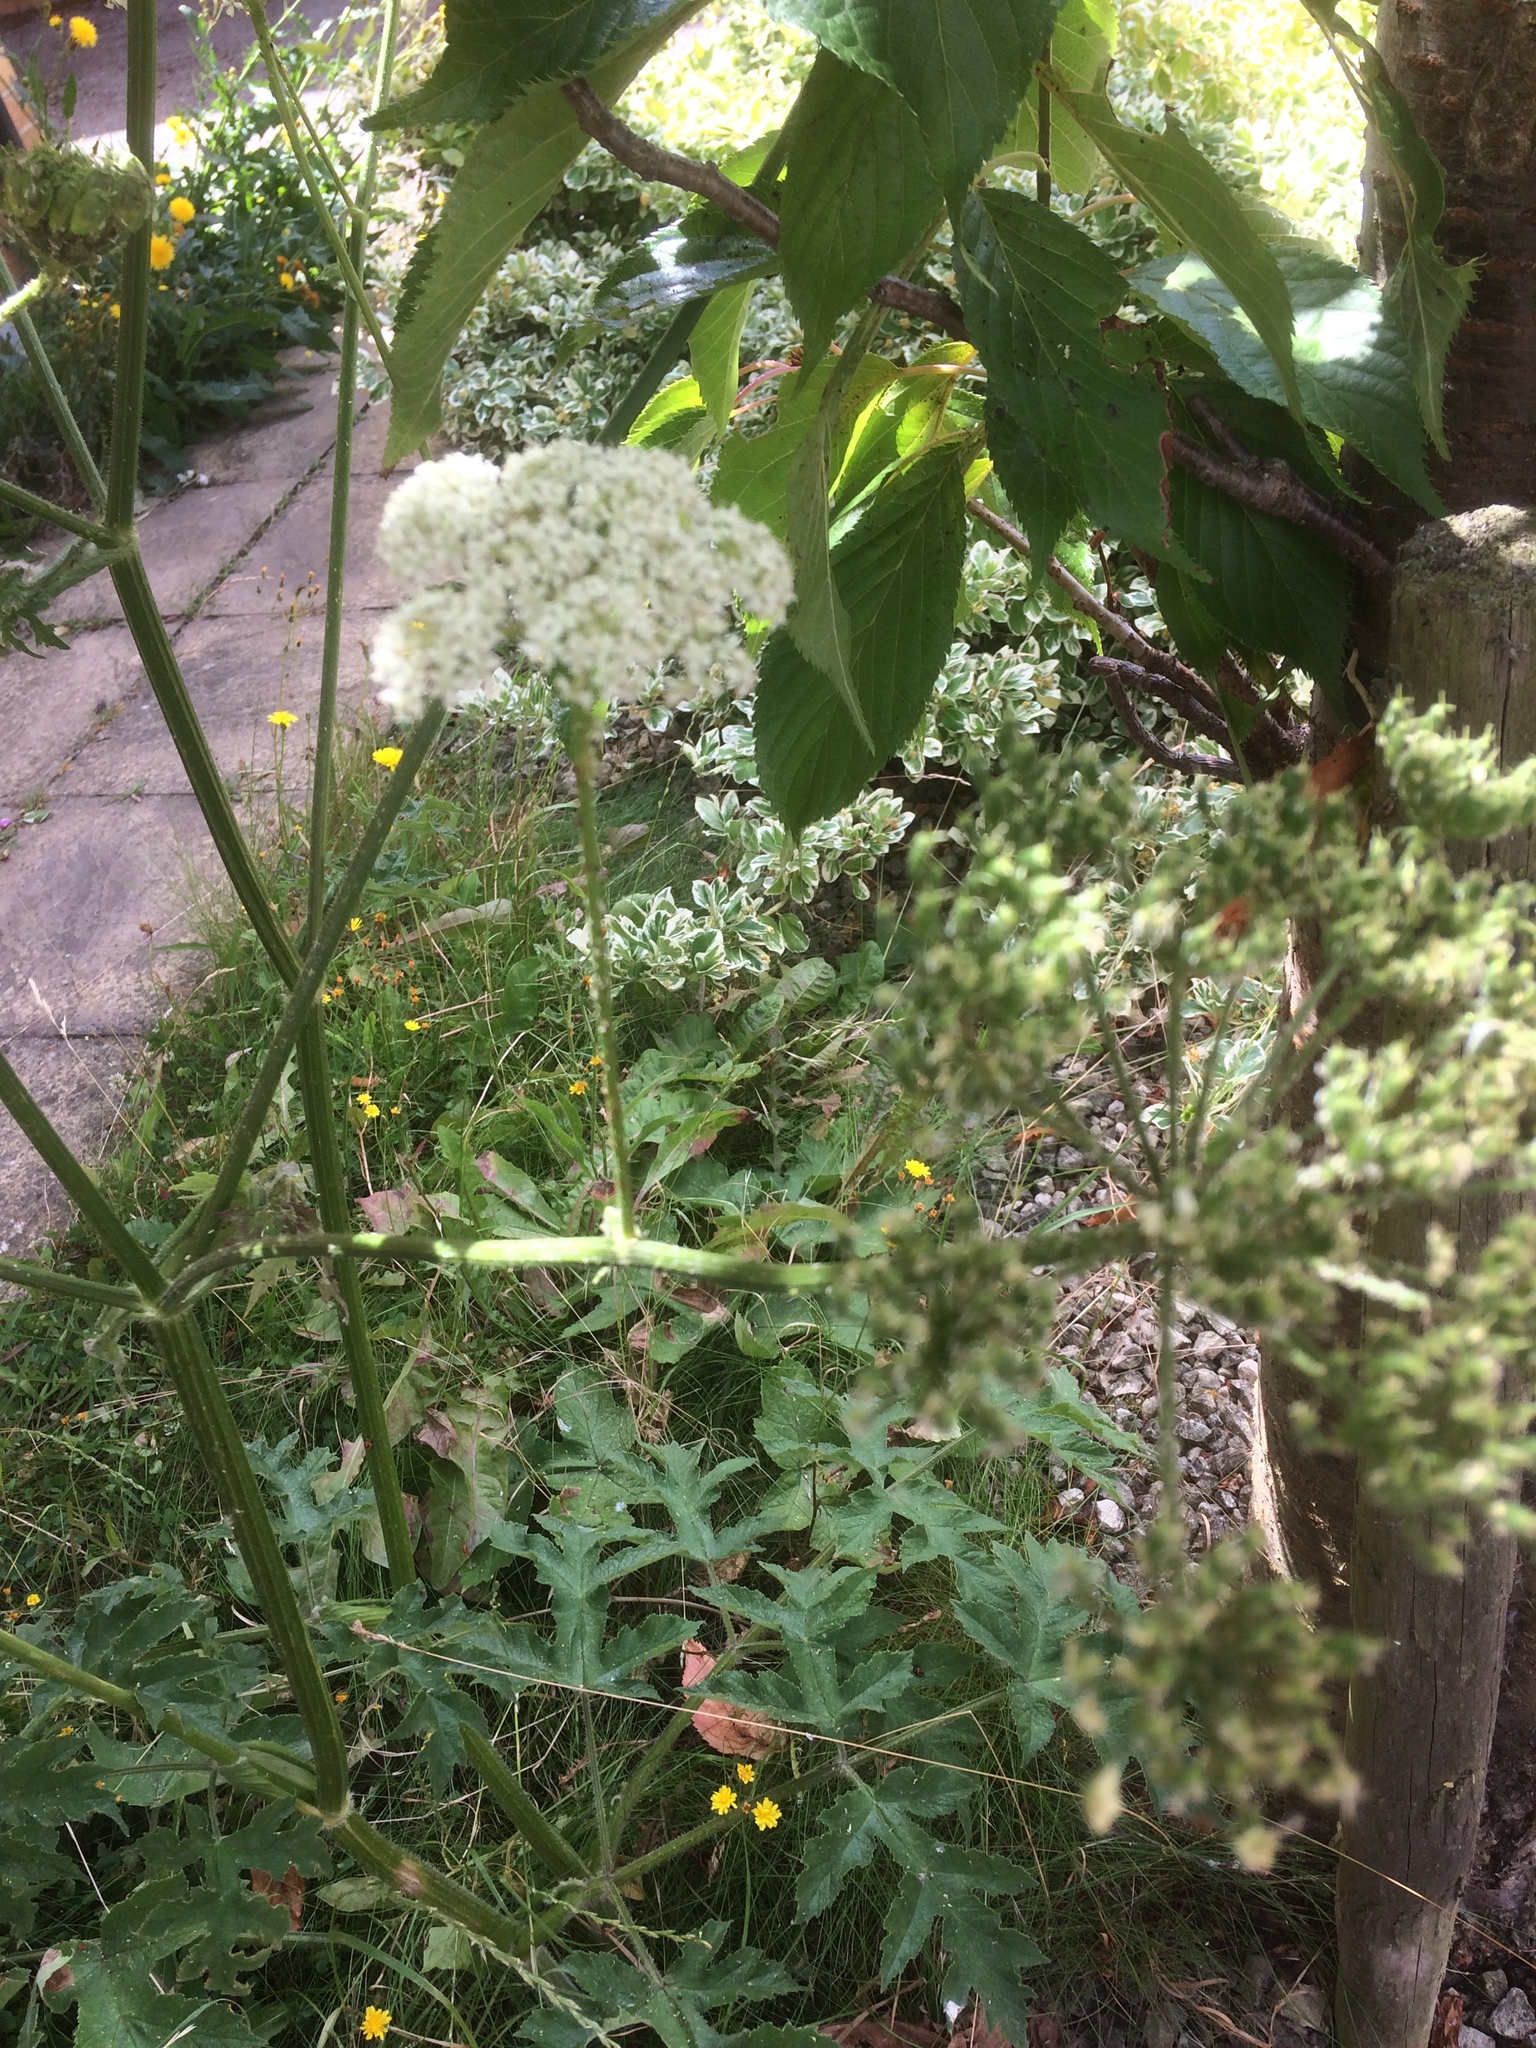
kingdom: Plantae
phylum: Tracheophyta
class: Magnoliopsida
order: Apiales
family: Apiaceae
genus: Heracleum
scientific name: Heracleum sphondylium
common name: Hogweed
